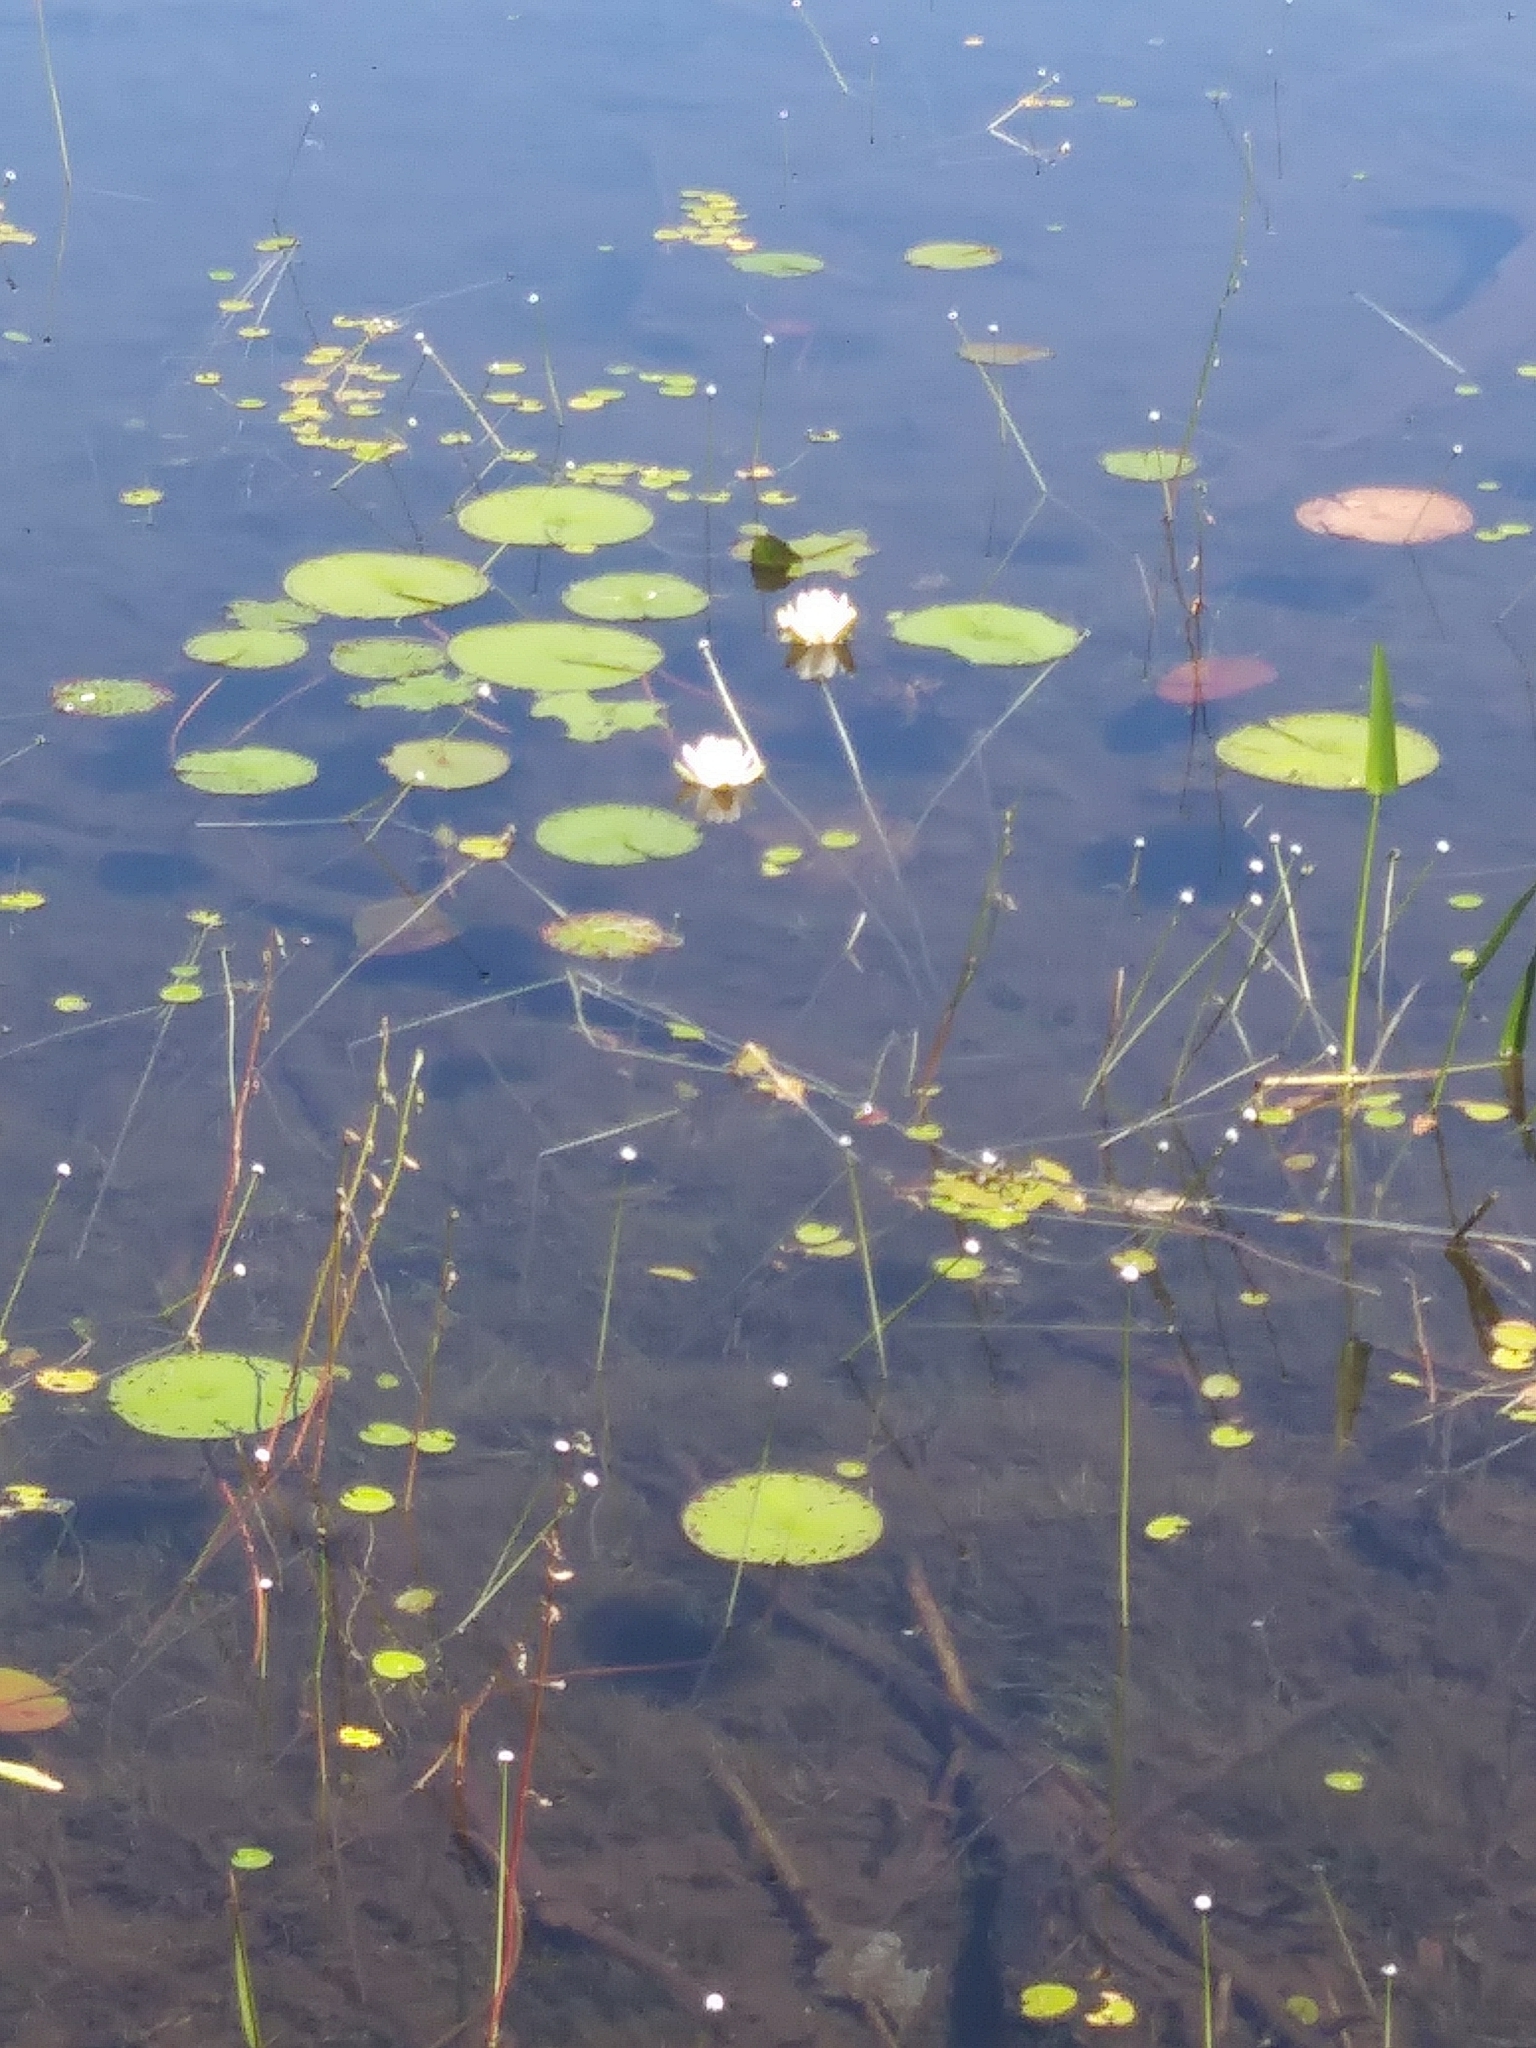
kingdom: Plantae
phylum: Tracheophyta
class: Magnoliopsida
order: Nymphaeales
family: Nymphaeaceae
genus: Nymphaea
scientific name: Nymphaea odorata
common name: Fragrant water-lily
